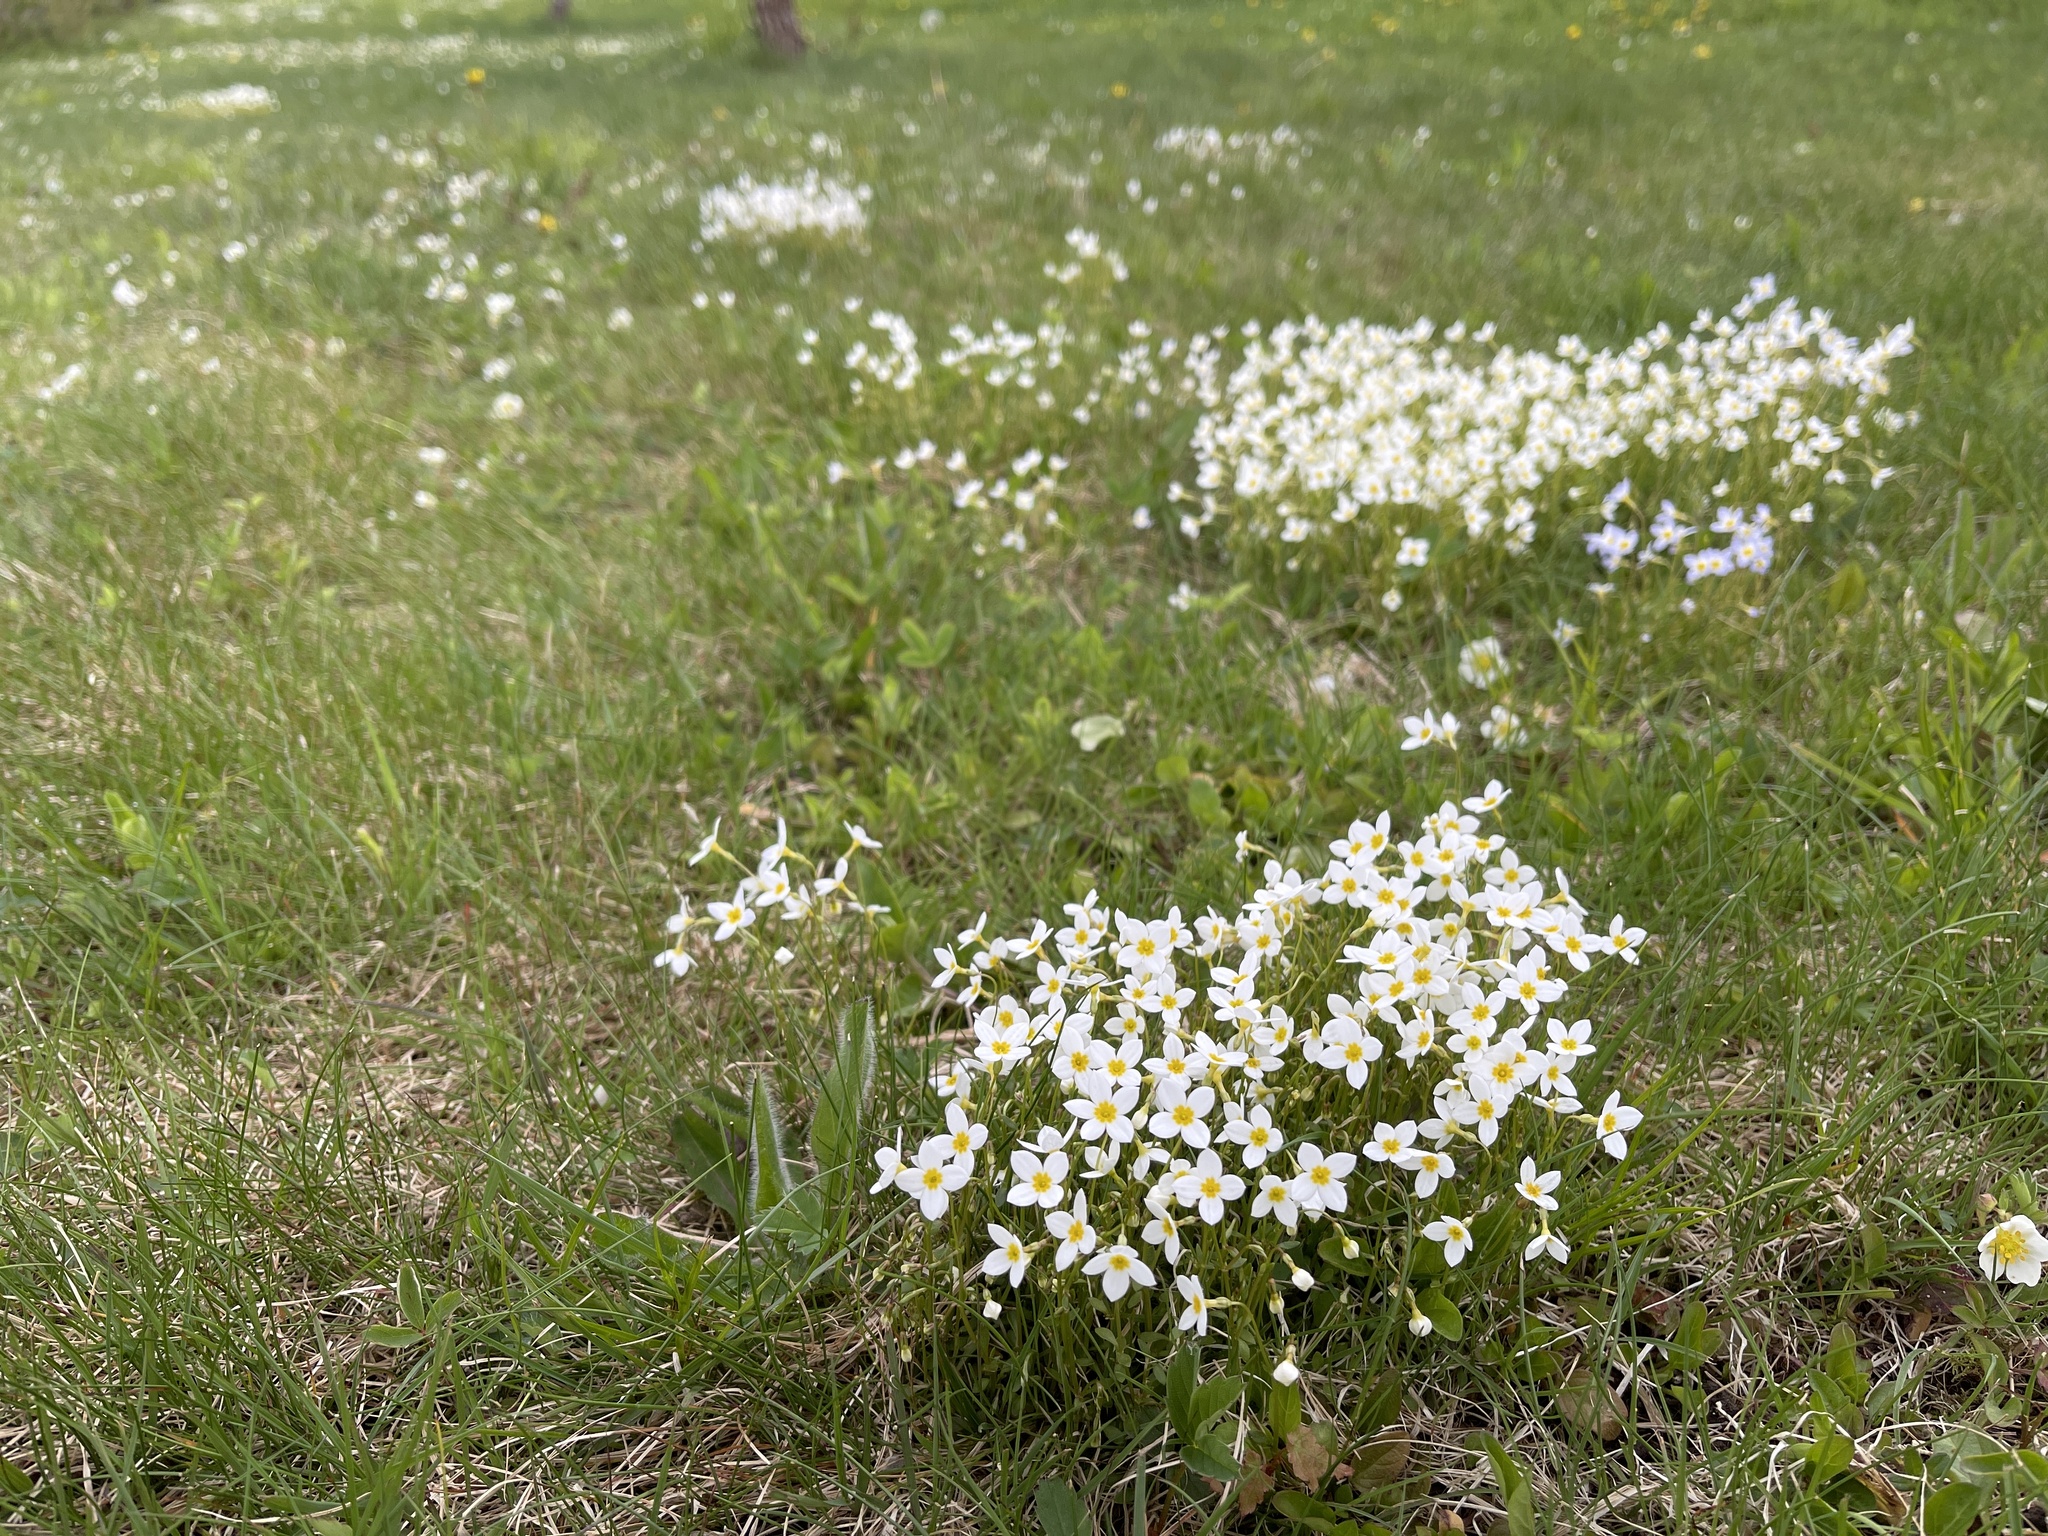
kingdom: Plantae
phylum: Tracheophyta
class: Magnoliopsida
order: Gentianales
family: Rubiaceae
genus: Houstonia
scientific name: Houstonia caerulea
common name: Bluets
